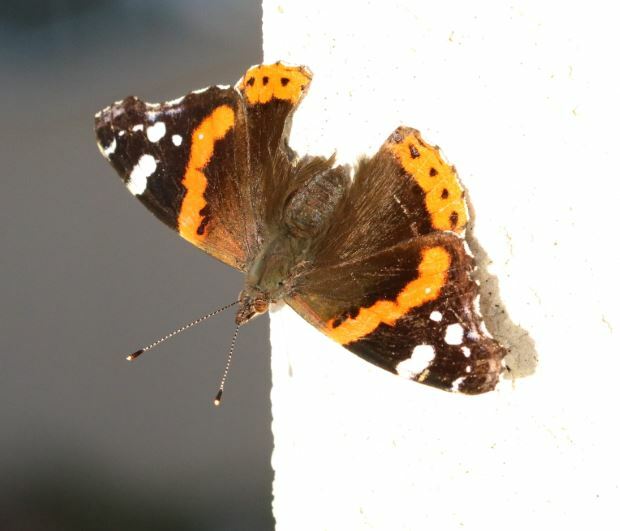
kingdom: Animalia
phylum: Arthropoda
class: Insecta
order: Lepidoptera
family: Nymphalidae
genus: Vanessa
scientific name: Vanessa atalanta
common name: Red admiral
